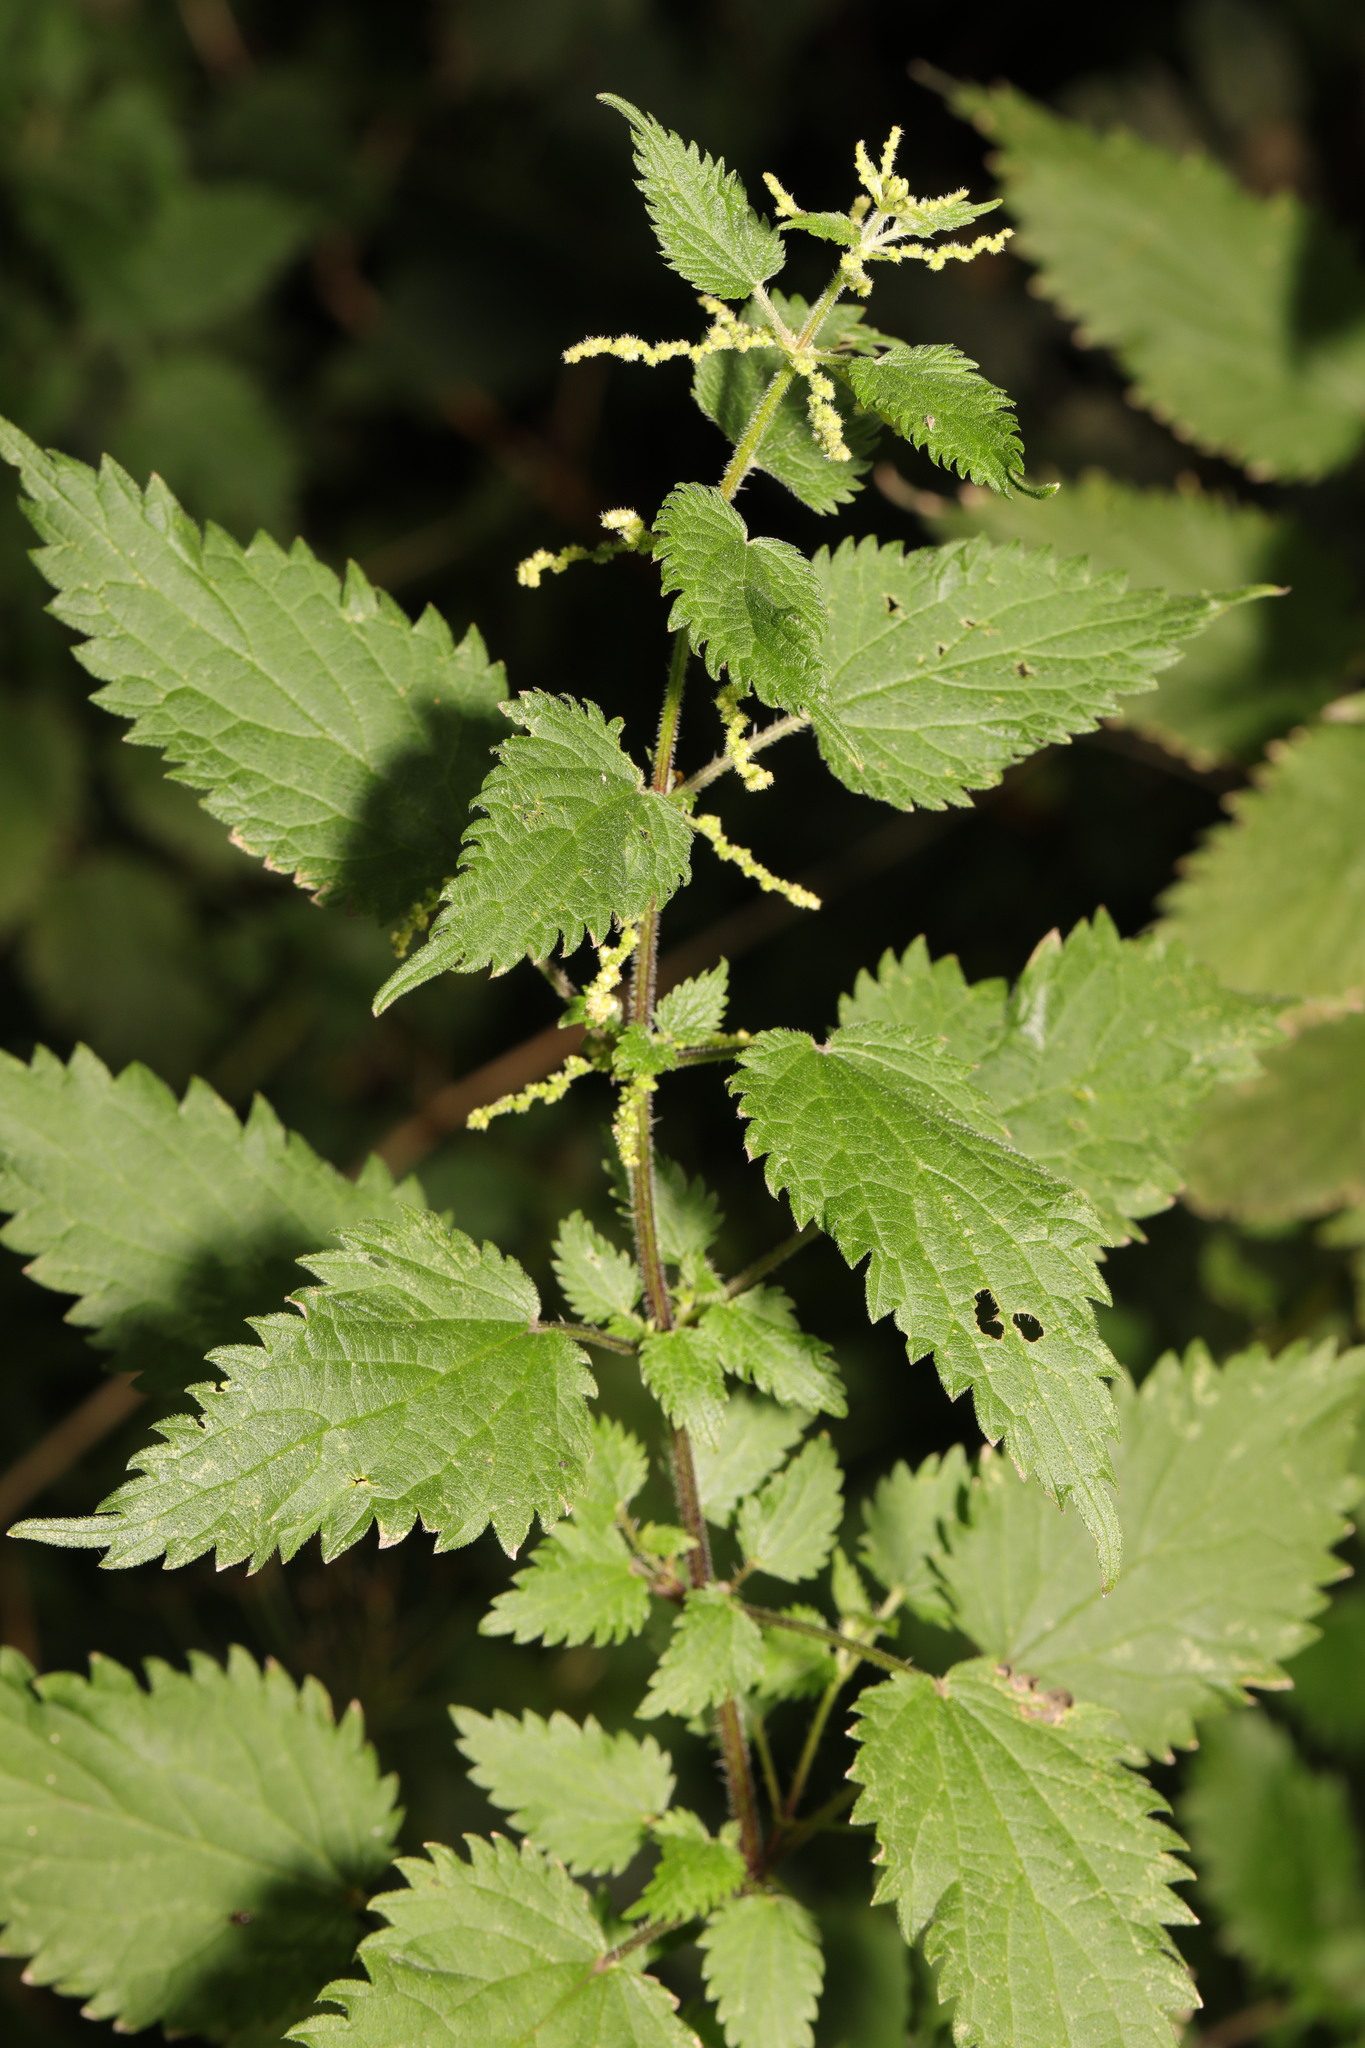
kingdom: Plantae
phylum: Tracheophyta
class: Magnoliopsida
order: Rosales
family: Urticaceae
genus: Urtica
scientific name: Urtica dioica
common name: Common nettle
